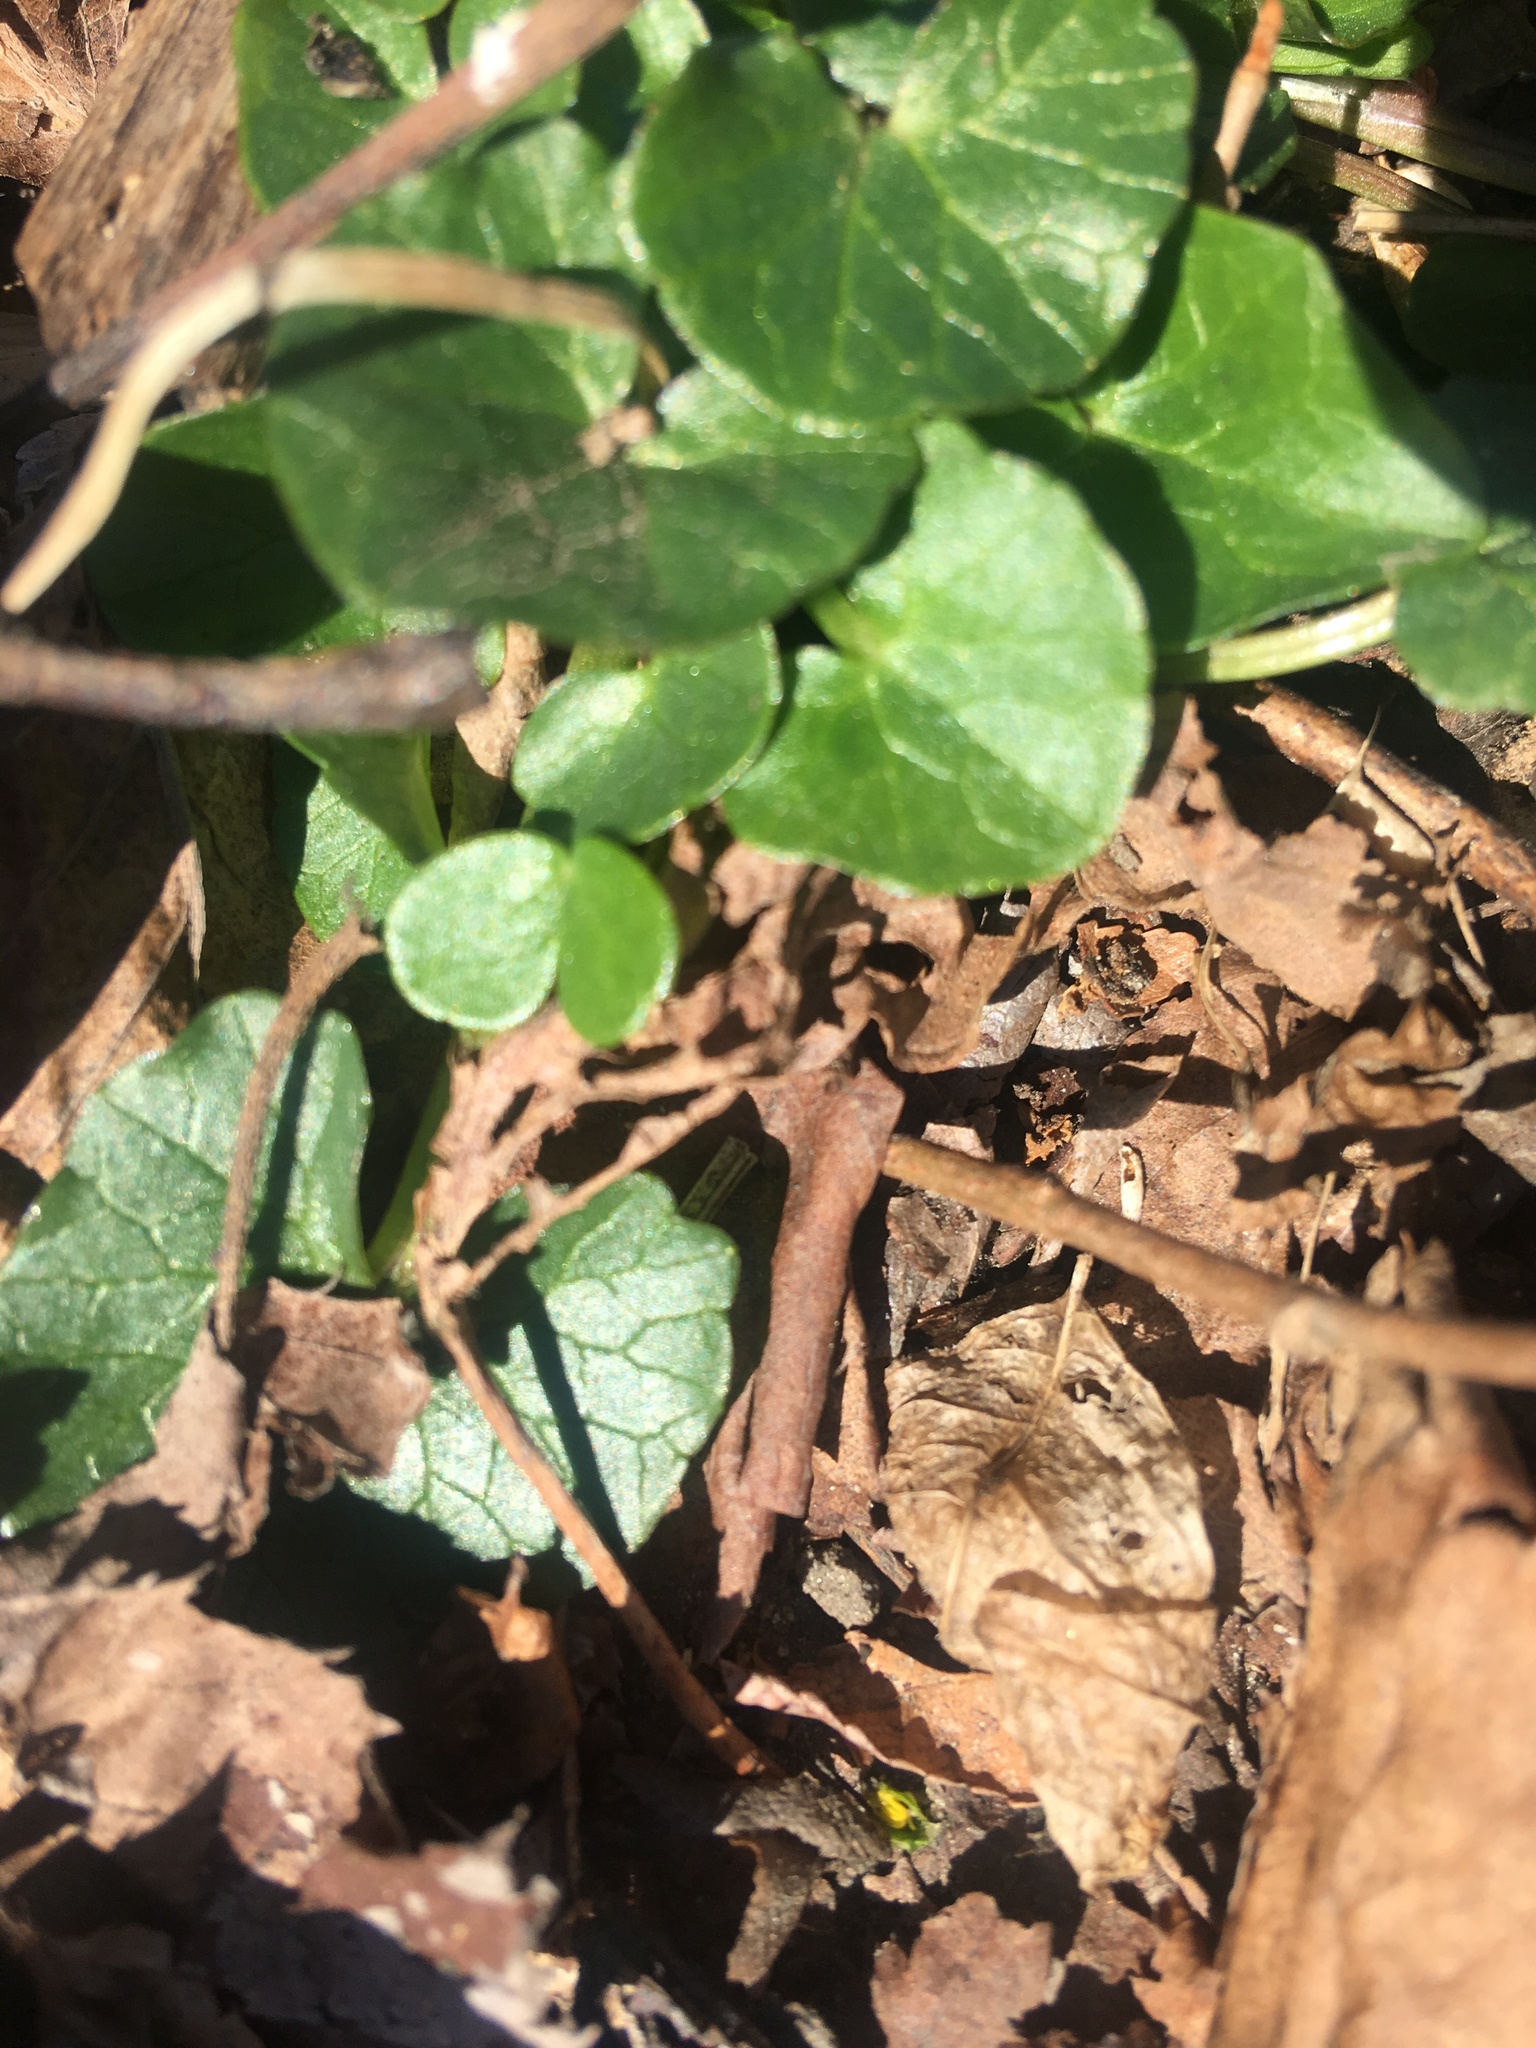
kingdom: Plantae
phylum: Tracheophyta
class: Magnoliopsida
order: Ranunculales
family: Ranunculaceae
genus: Ficaria
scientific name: Ficaria verna
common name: Lesser celandine
